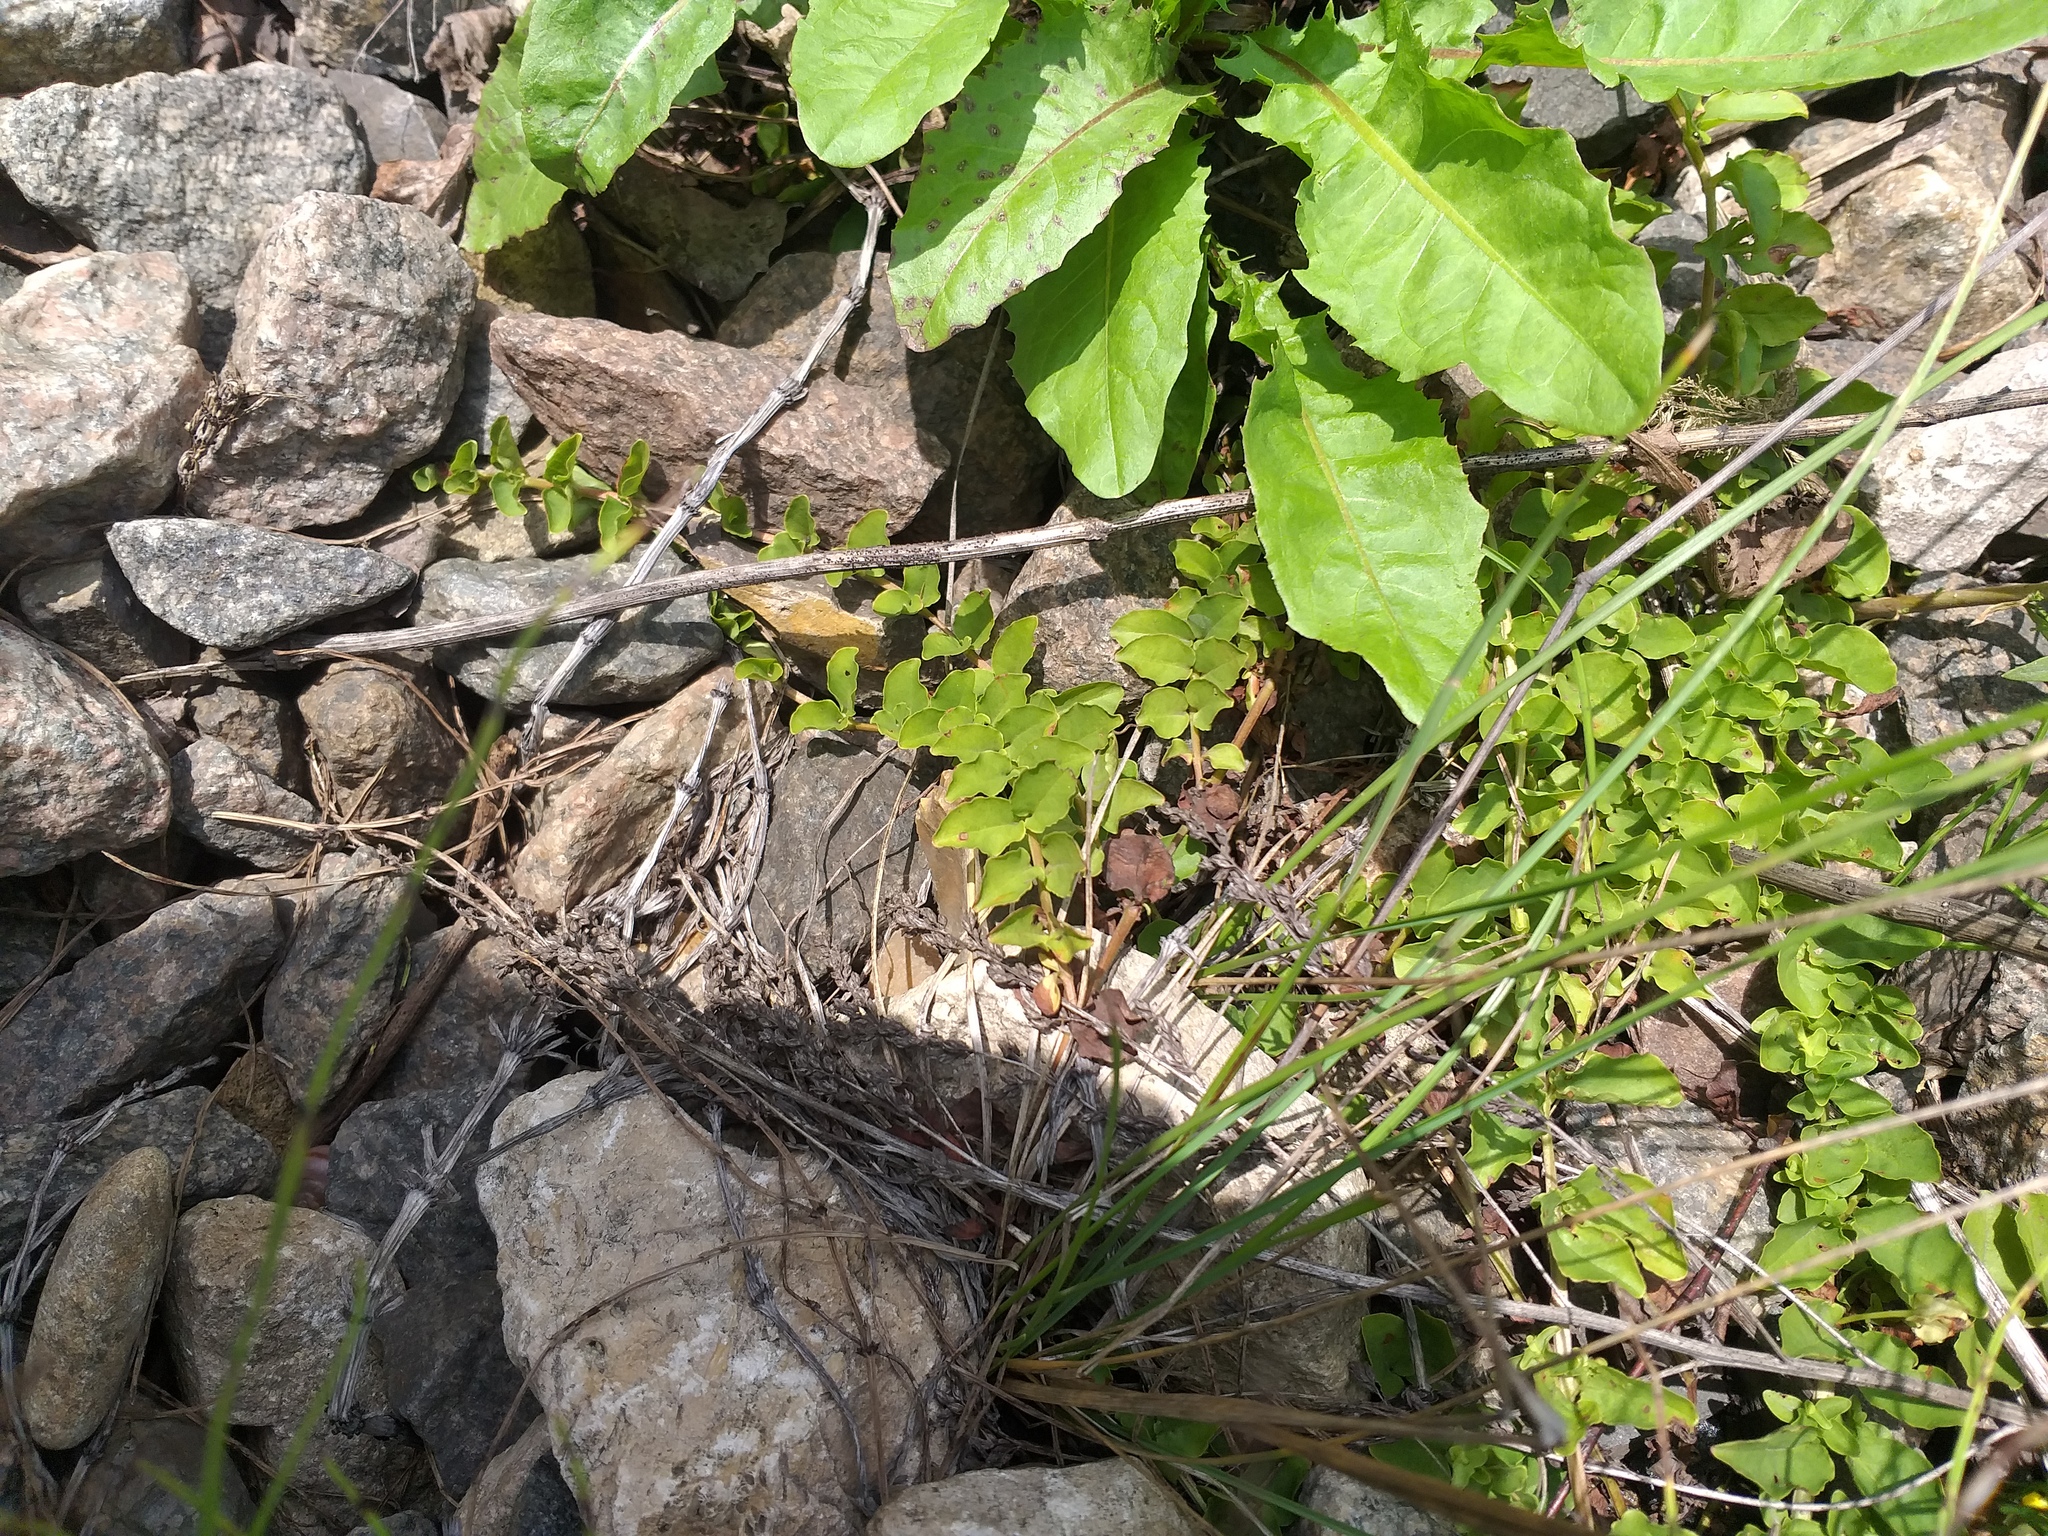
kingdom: Plantae
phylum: Tracheophyta
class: Magnoliopsida
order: Ericales
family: Primulaceae
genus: Lysimachia
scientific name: Lysimachia nummularia
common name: Moneywort
